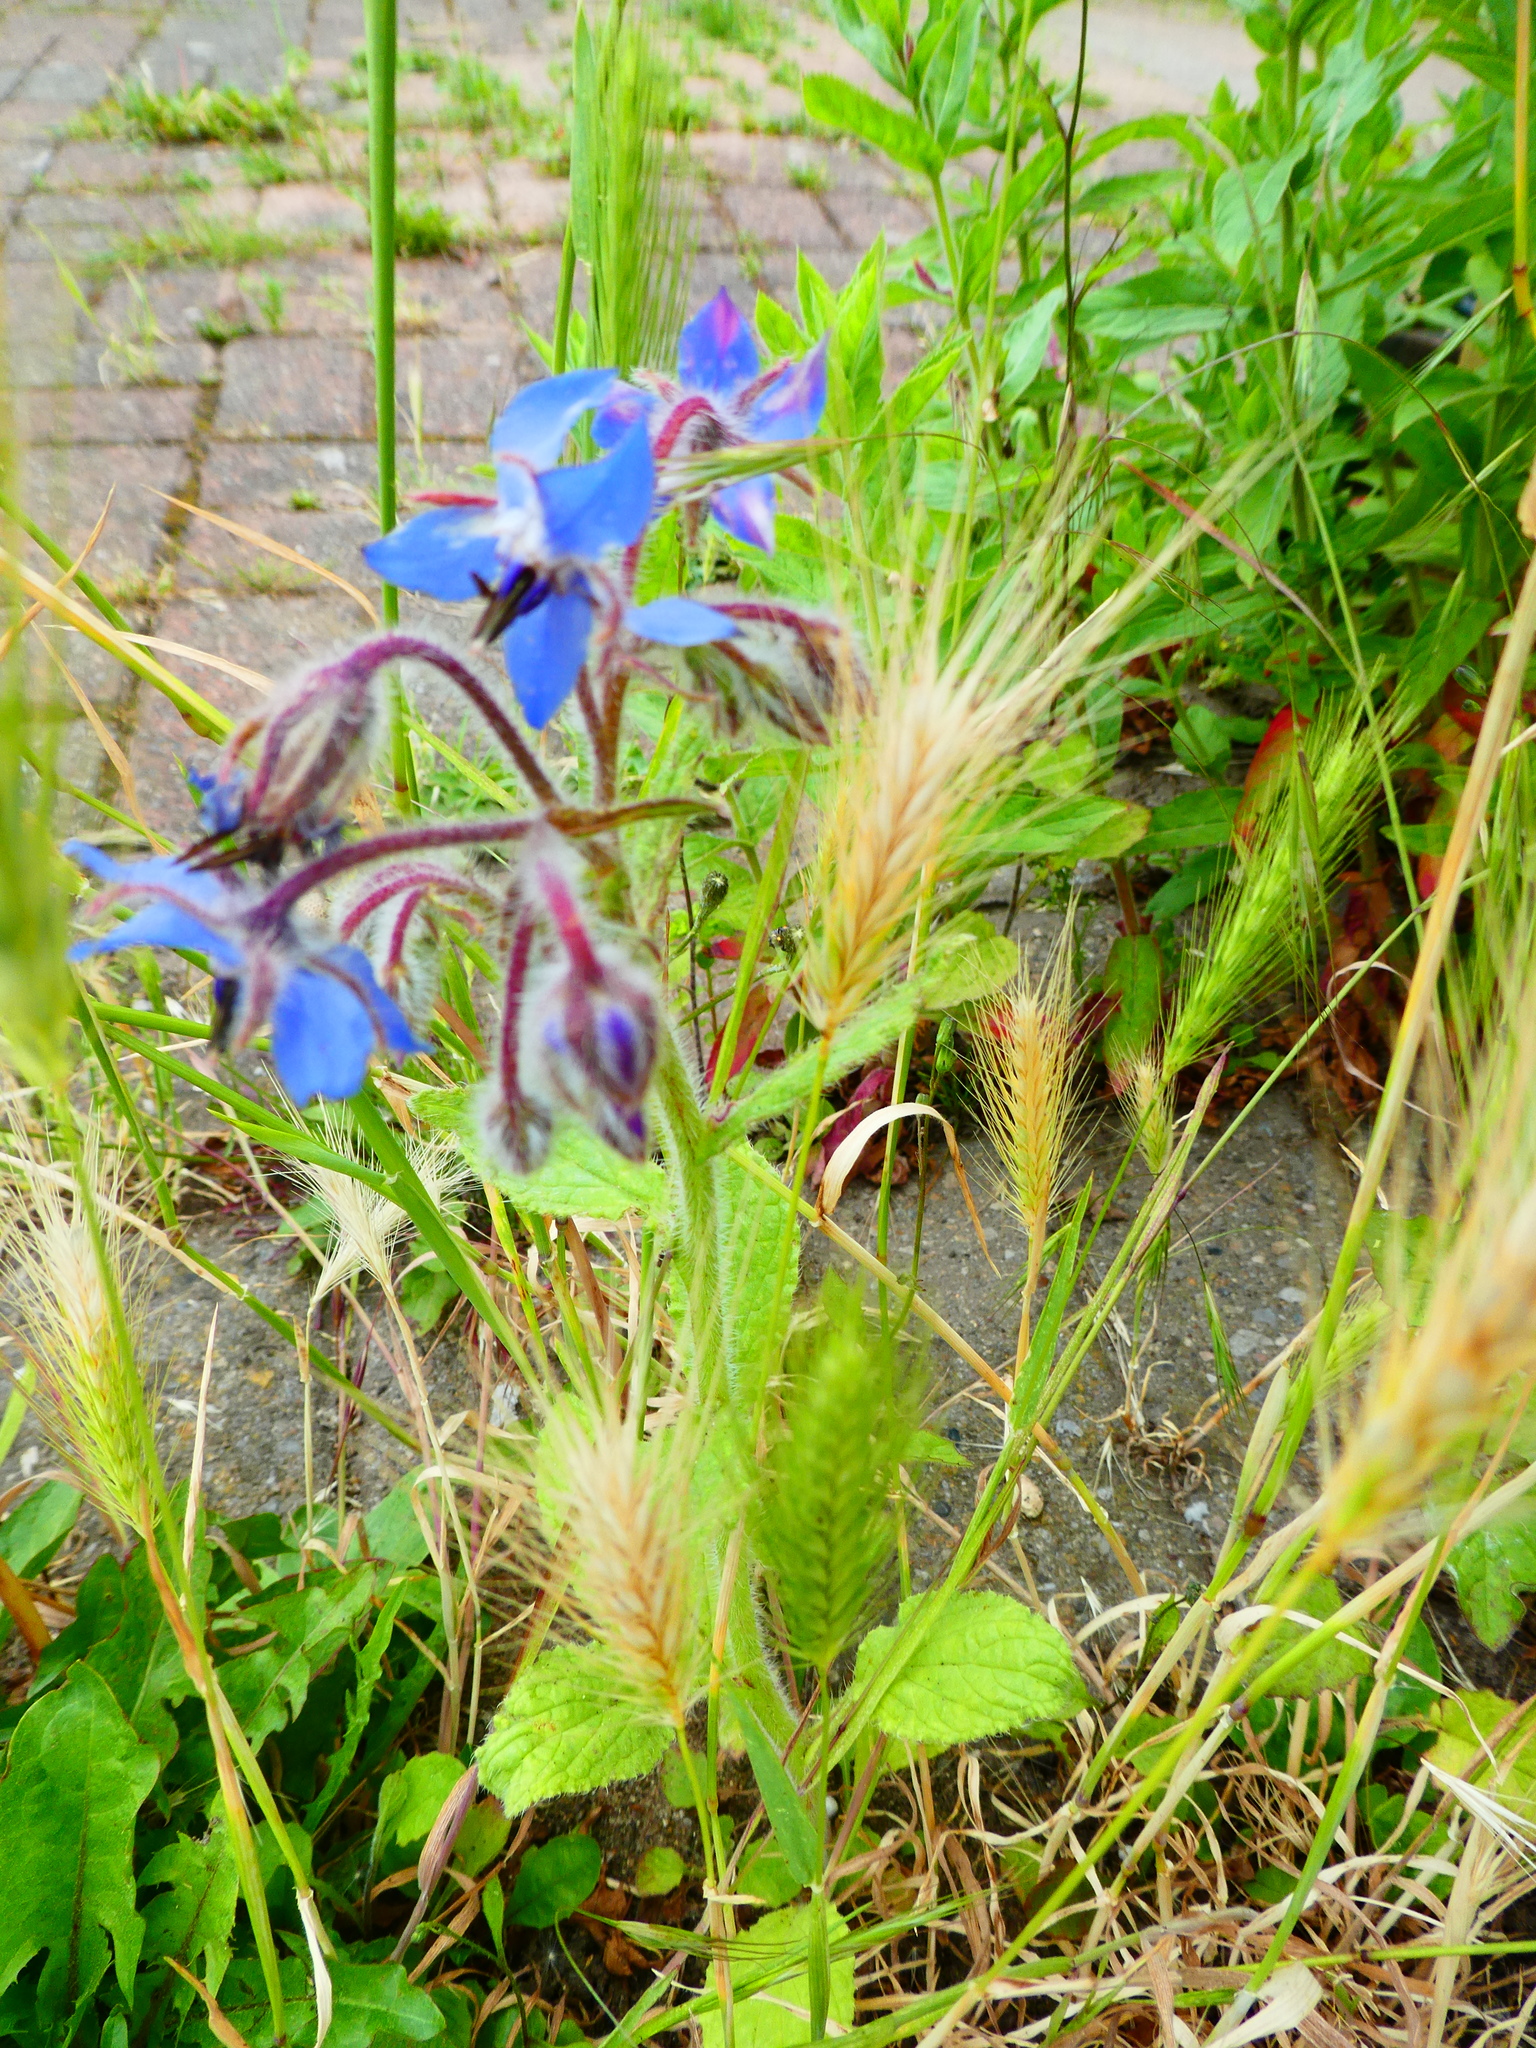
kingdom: Plantae
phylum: Tracheophyta
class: Magnoliopsida
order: Boraginales
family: Boraginaceae
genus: Borago
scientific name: Borago officinalis
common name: Borage
